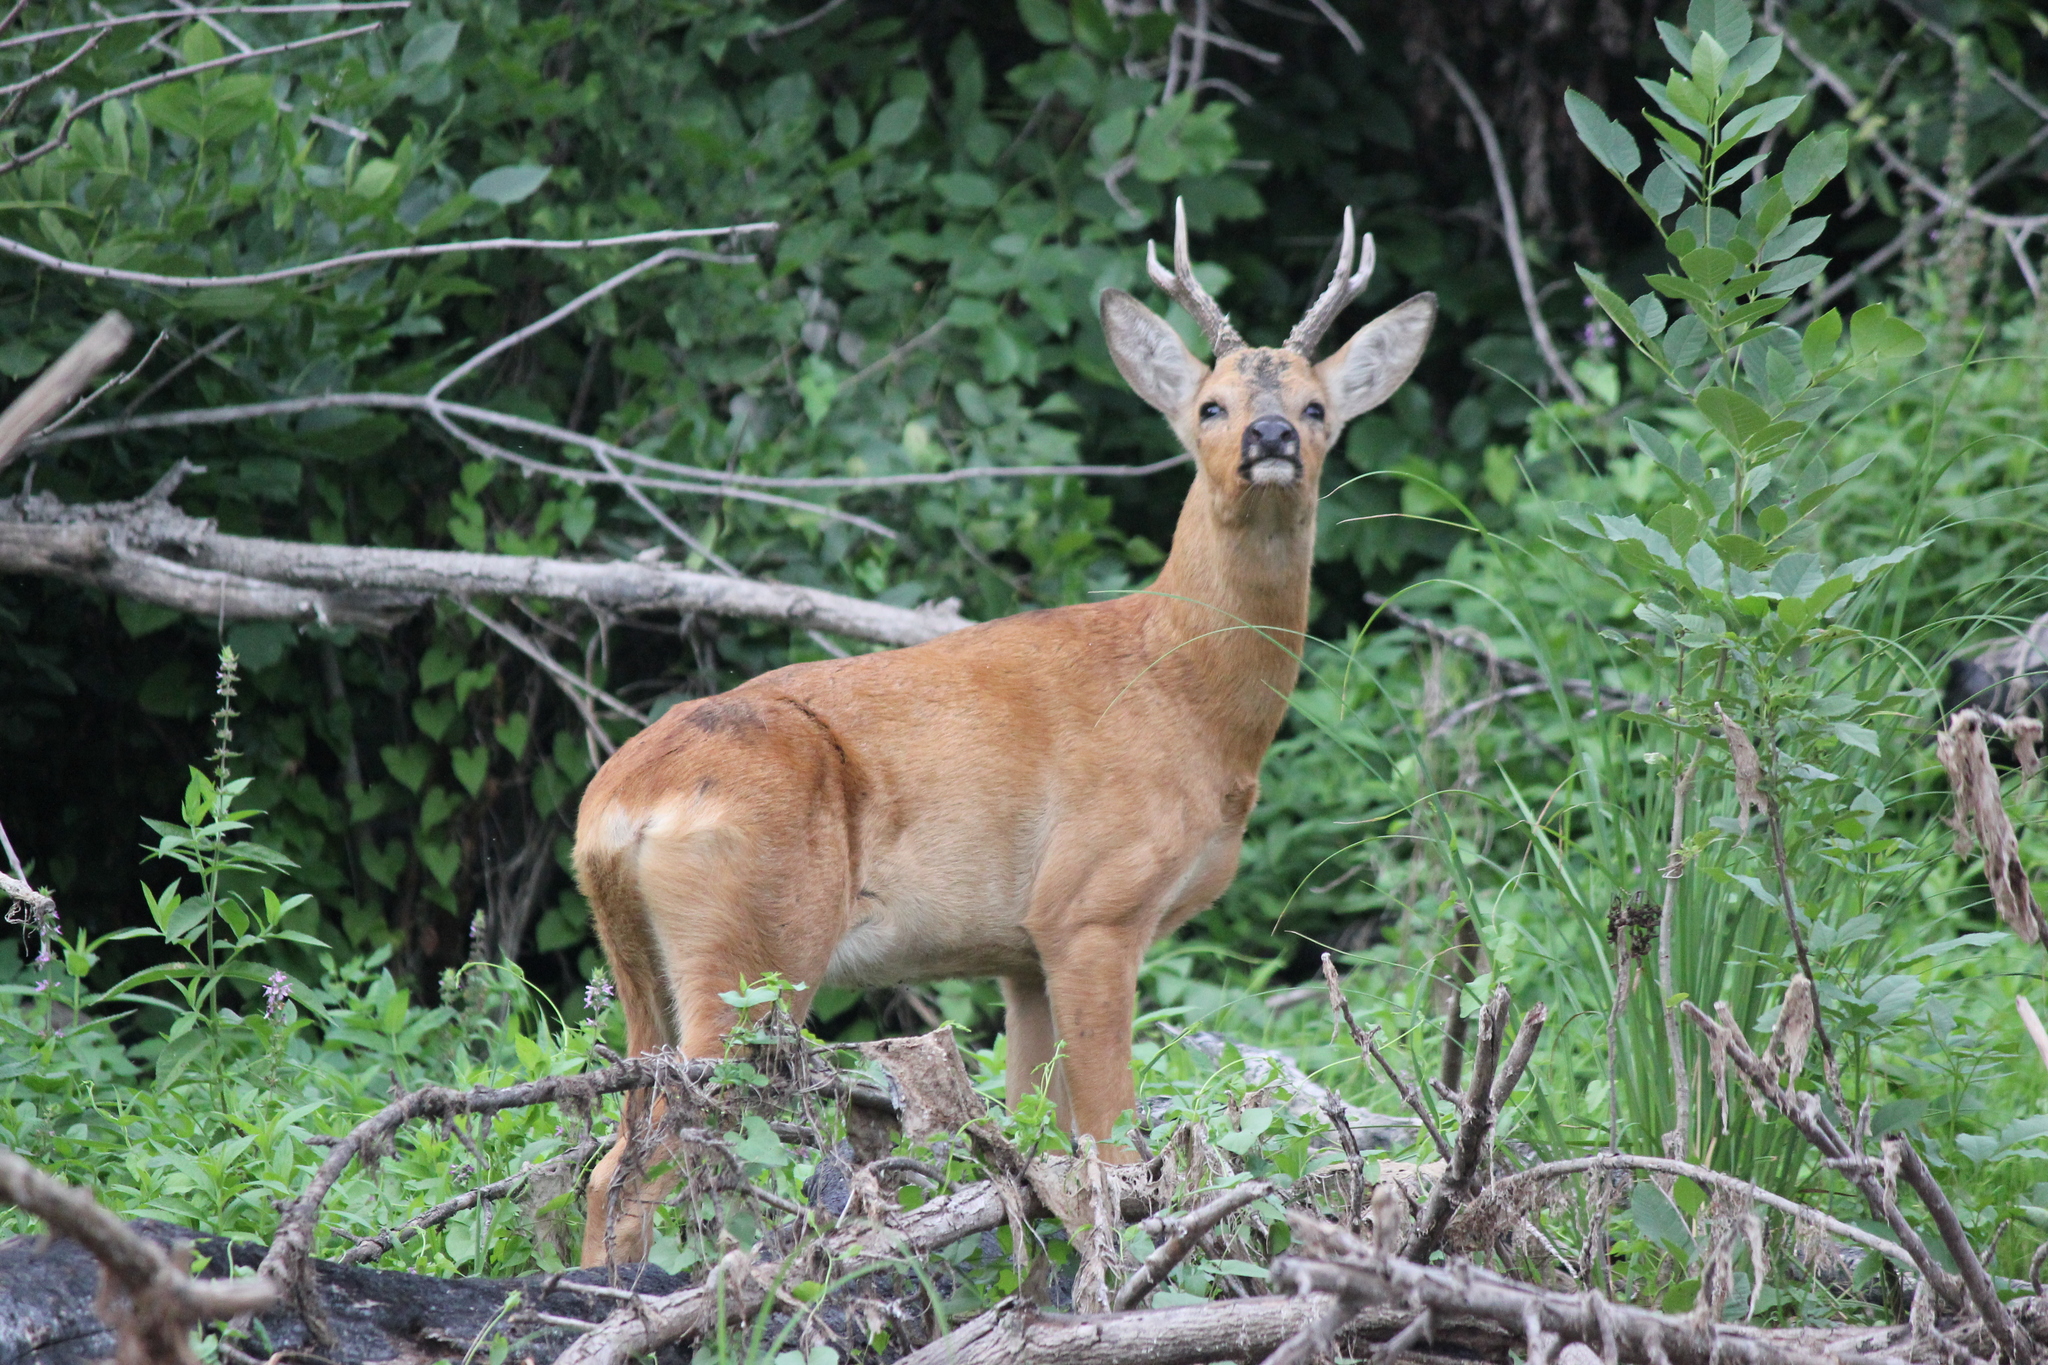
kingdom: Animalia
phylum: Chordata
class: Mammalia
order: Artiodactyla
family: Cervidae
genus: Capreolus
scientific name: Capreolus pygargus
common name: Siberian roe
